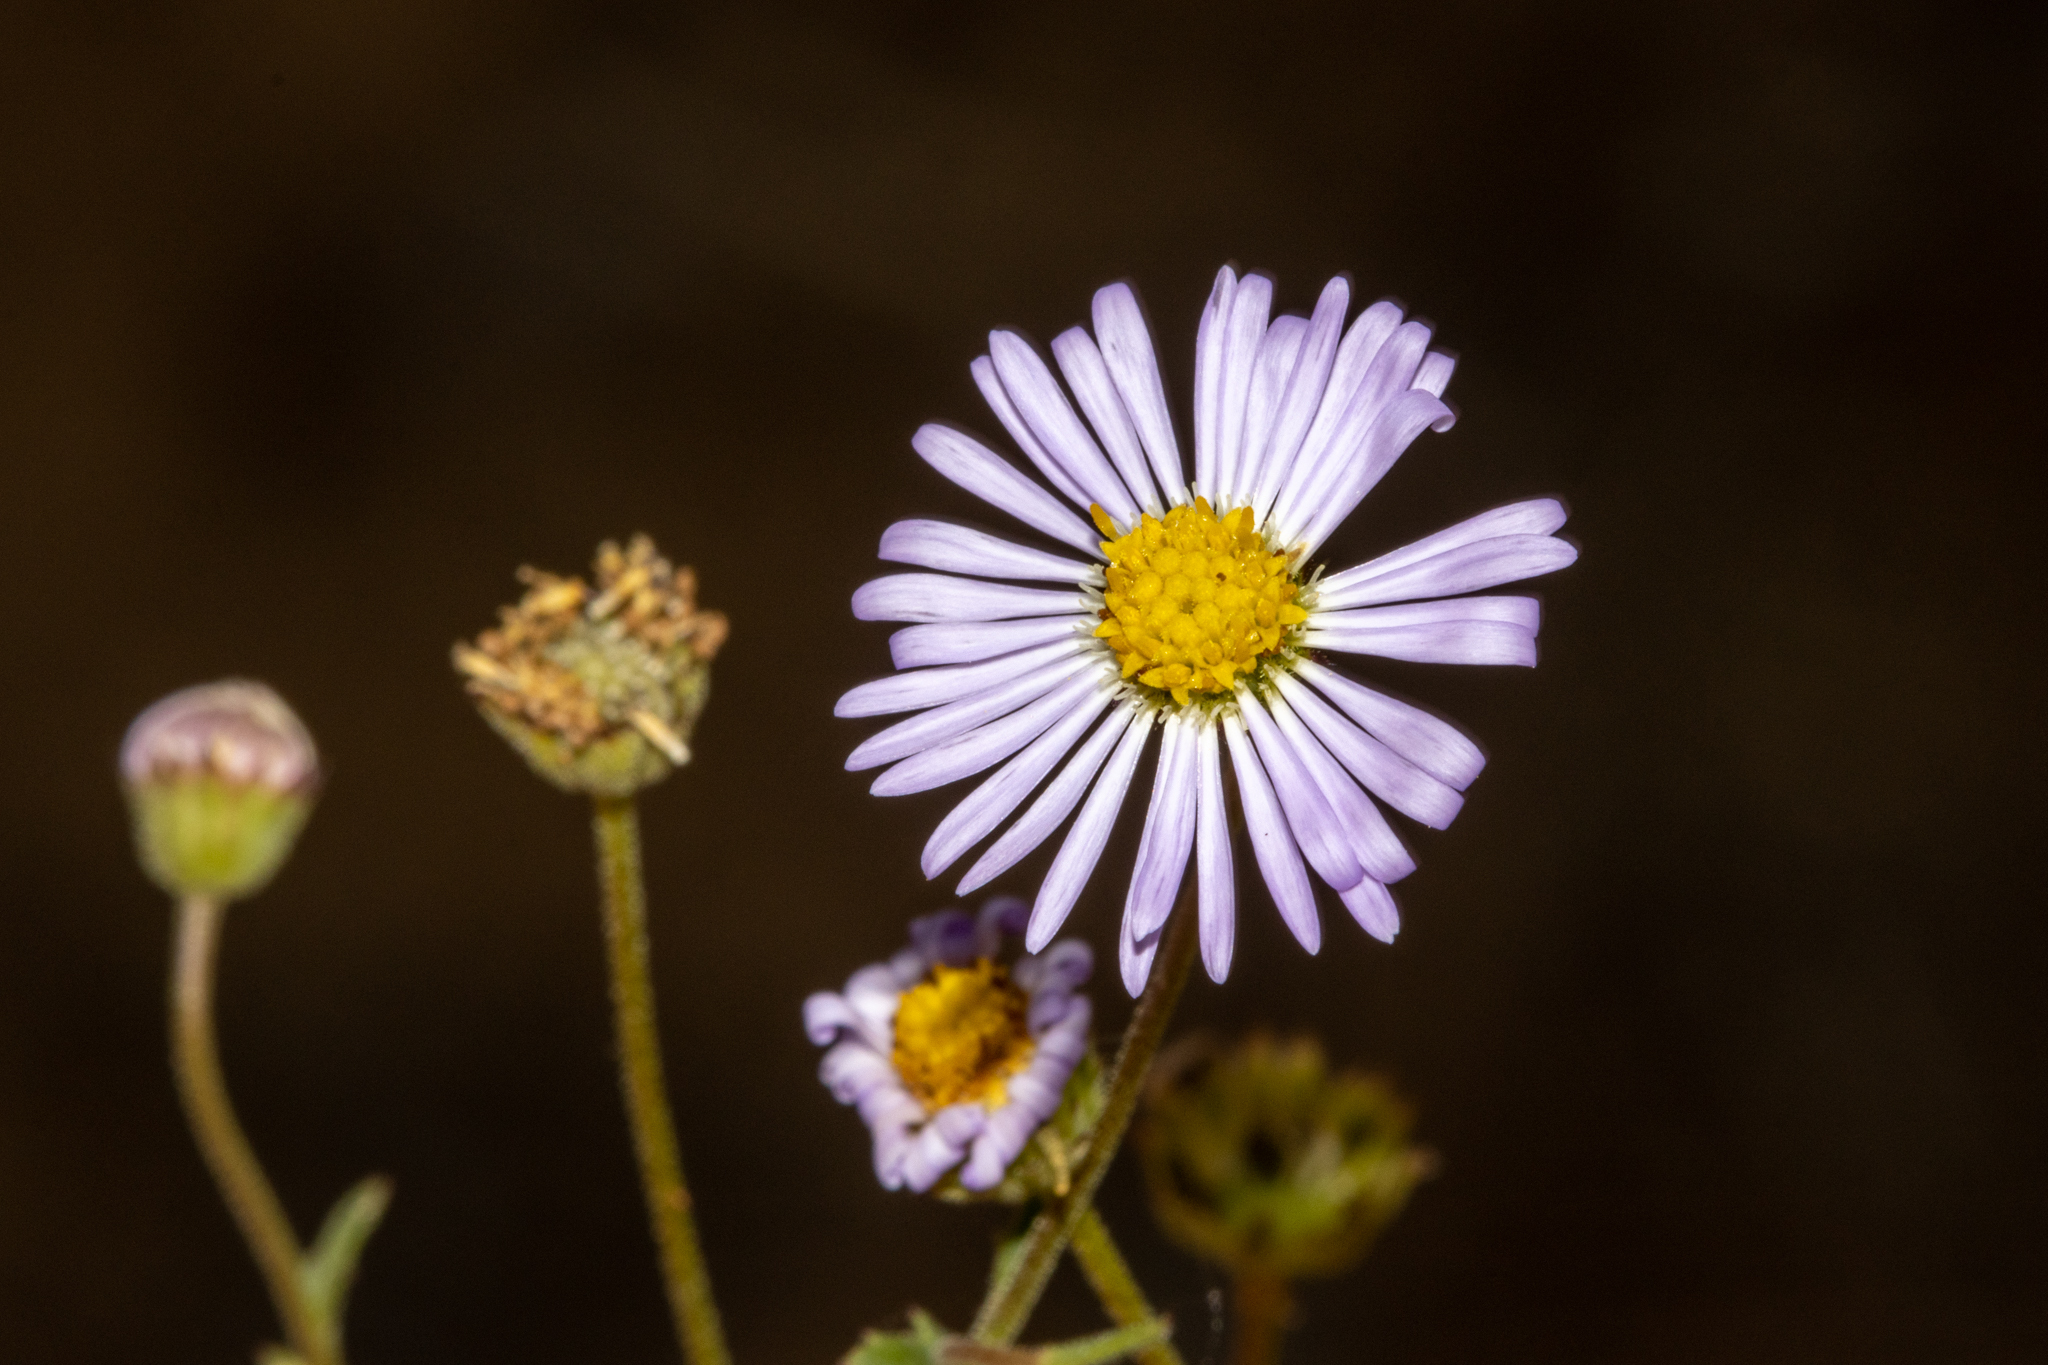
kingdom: Plantae
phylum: Tracheophyta
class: Magnoliopsida
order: Asterales
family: Asteraceae
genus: Brachyscome
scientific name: Brachyscome ciliaris
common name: Variable daisy
